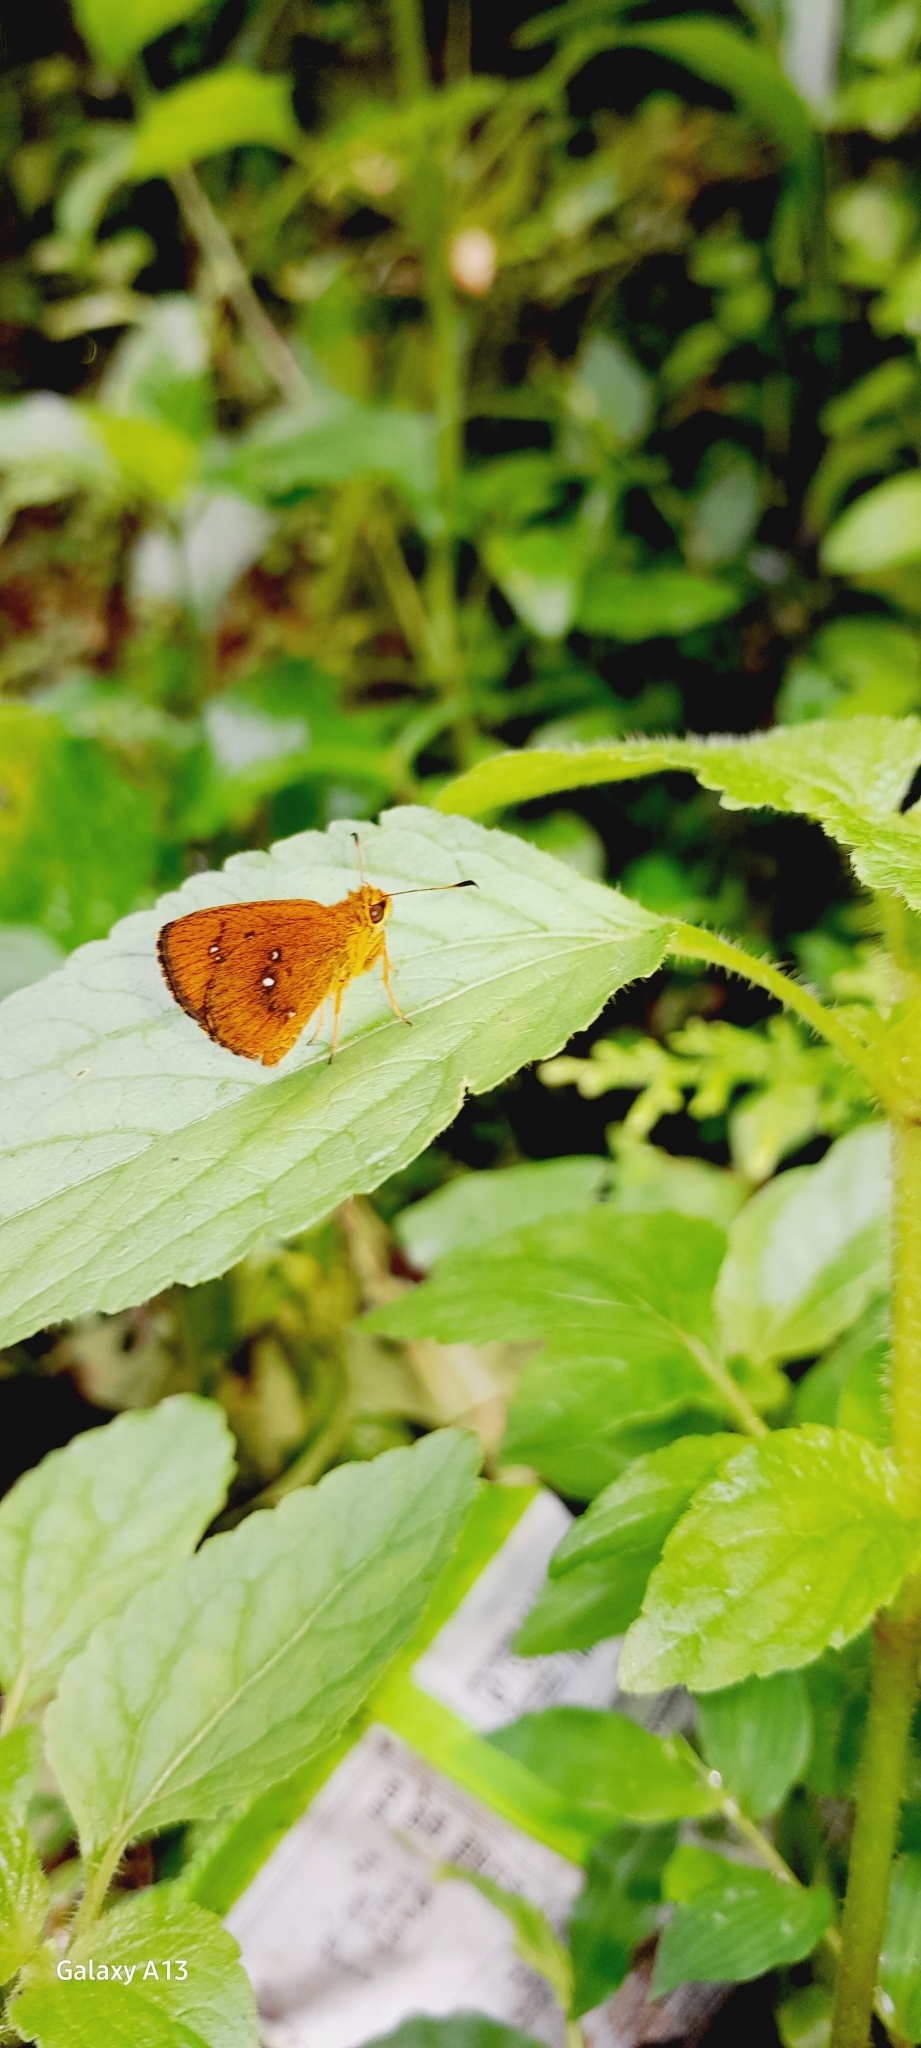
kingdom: Animalia
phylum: Arthropoda
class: Insecta
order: Lepidoptera
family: Hesperiidae
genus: Iambrix
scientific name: Iambrix salsala
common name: Chestnut bob
